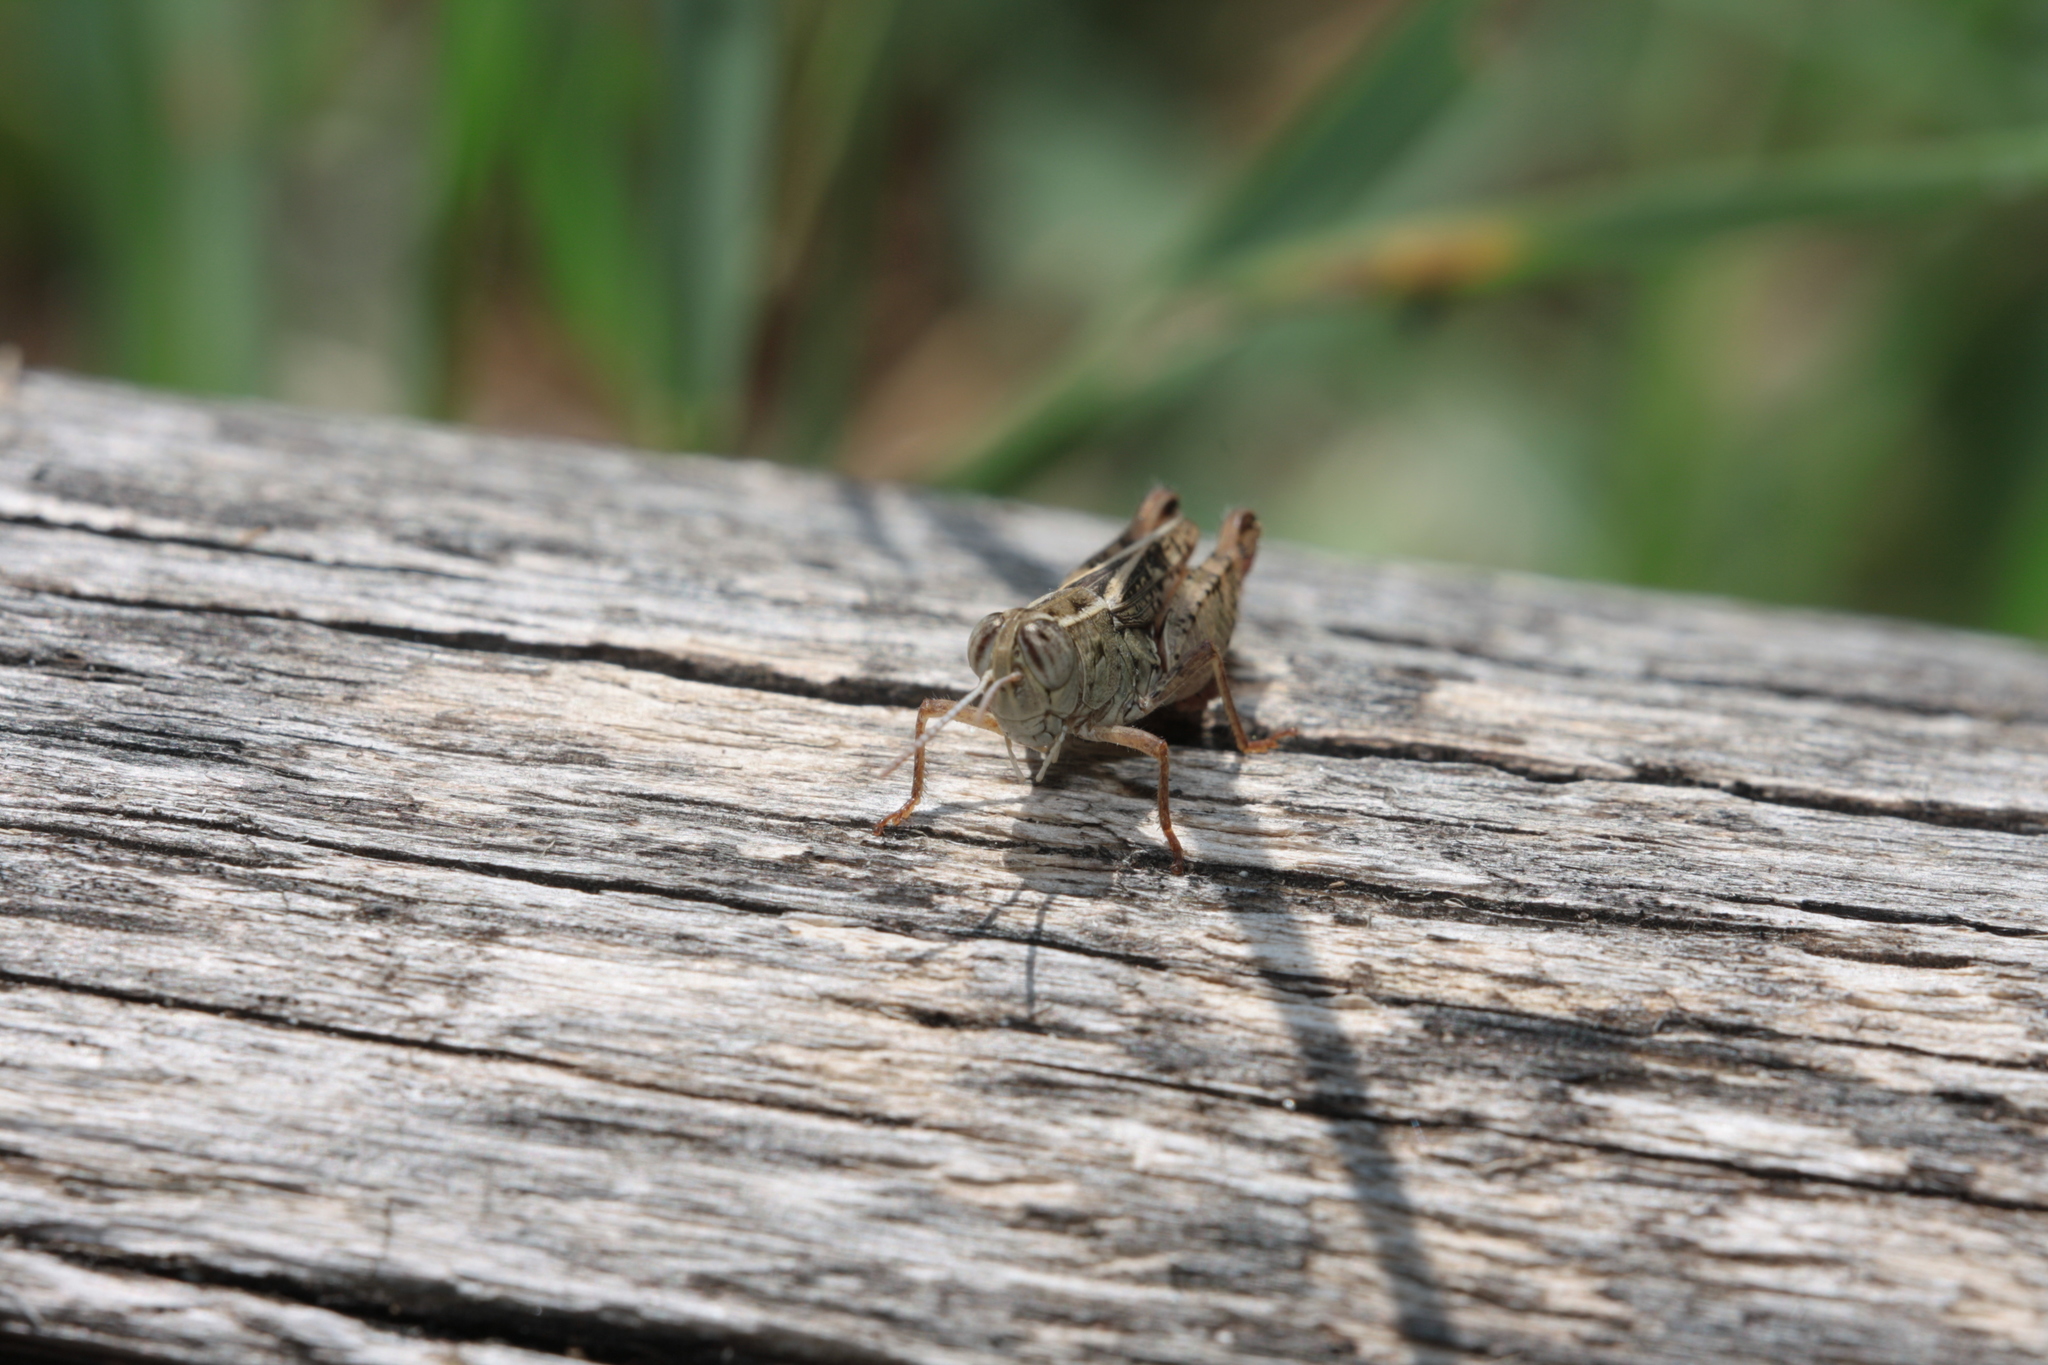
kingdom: Animalia
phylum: Arthropoda
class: Insecta
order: Orthoptera
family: Acrididae
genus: Calliptamus
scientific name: Calliptamus siciliae
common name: Pygmy pincer grasshopper
